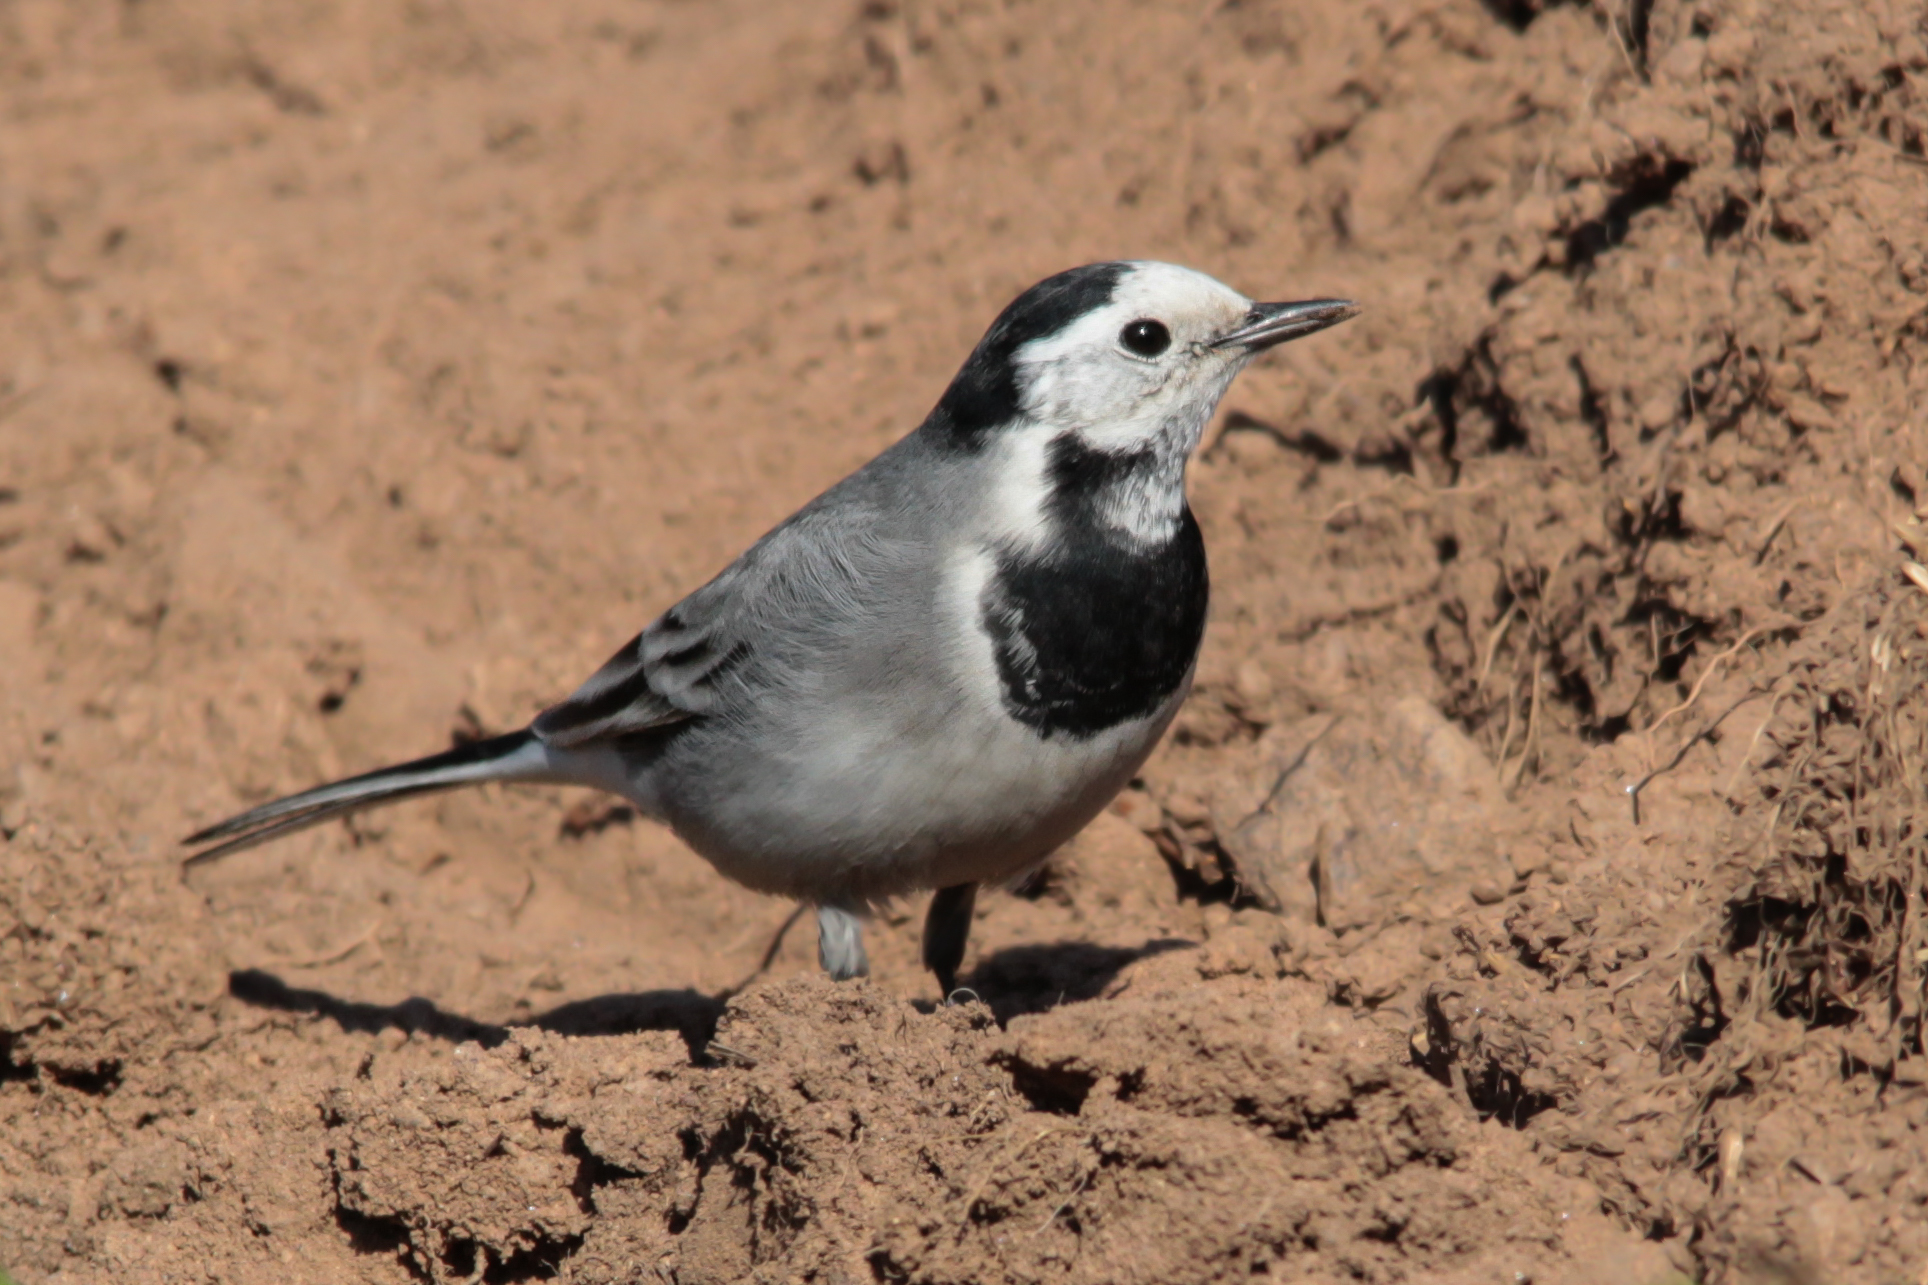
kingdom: Animalia
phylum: Chordata
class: Aves
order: Passeriformes
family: Motacillidae
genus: Motacilla
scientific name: Motacilla alba
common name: White wagtail
